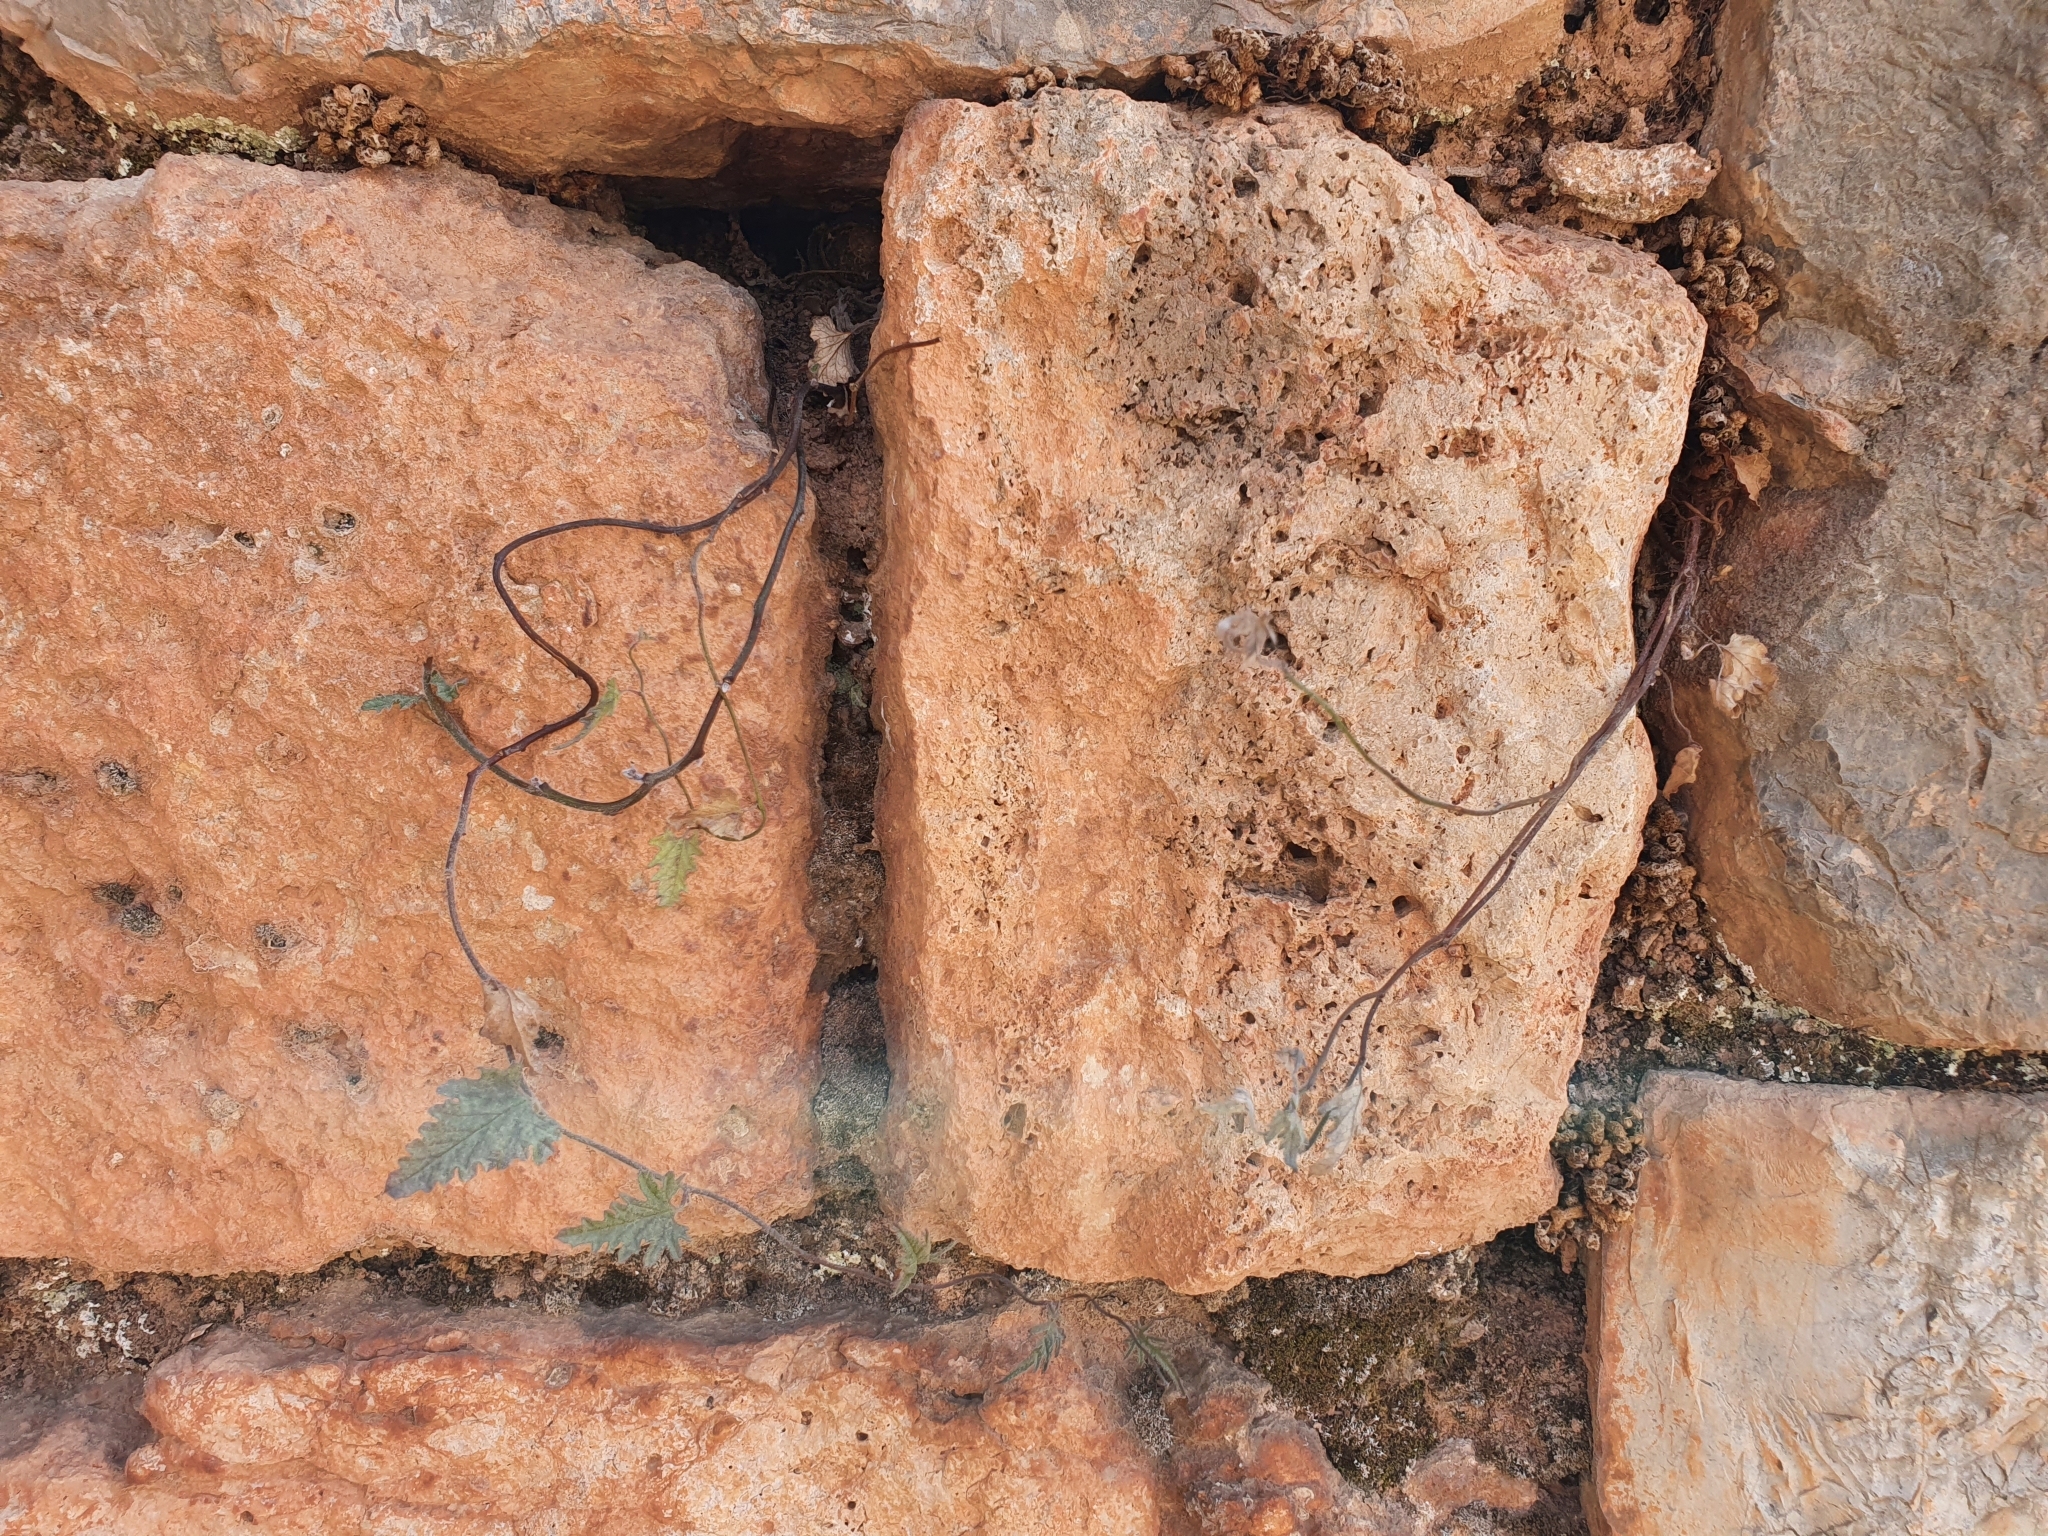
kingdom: Plantae
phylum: Tracheophyta
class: Magnoliopsida
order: Solanales
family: Convolvulaceae
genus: Convolvulus
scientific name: Convolvulus althaeoides
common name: Mallow bindweed
